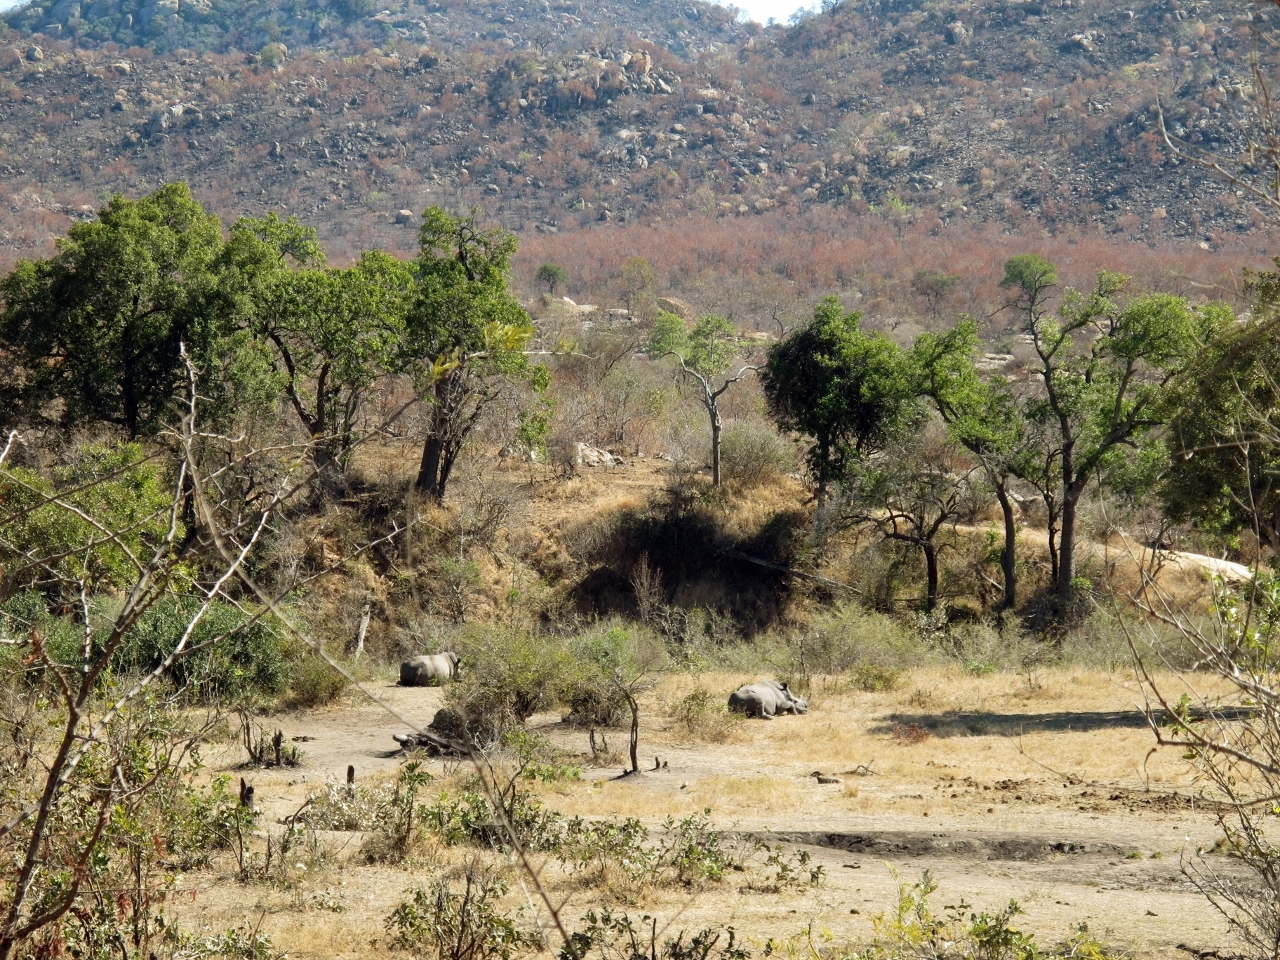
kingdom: Animalia
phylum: Chordata
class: Mammalia
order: Perissodactyla
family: Rhinocerotidae
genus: Ceratotherium
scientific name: Ceratotherium simum
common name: White rhinoceros
